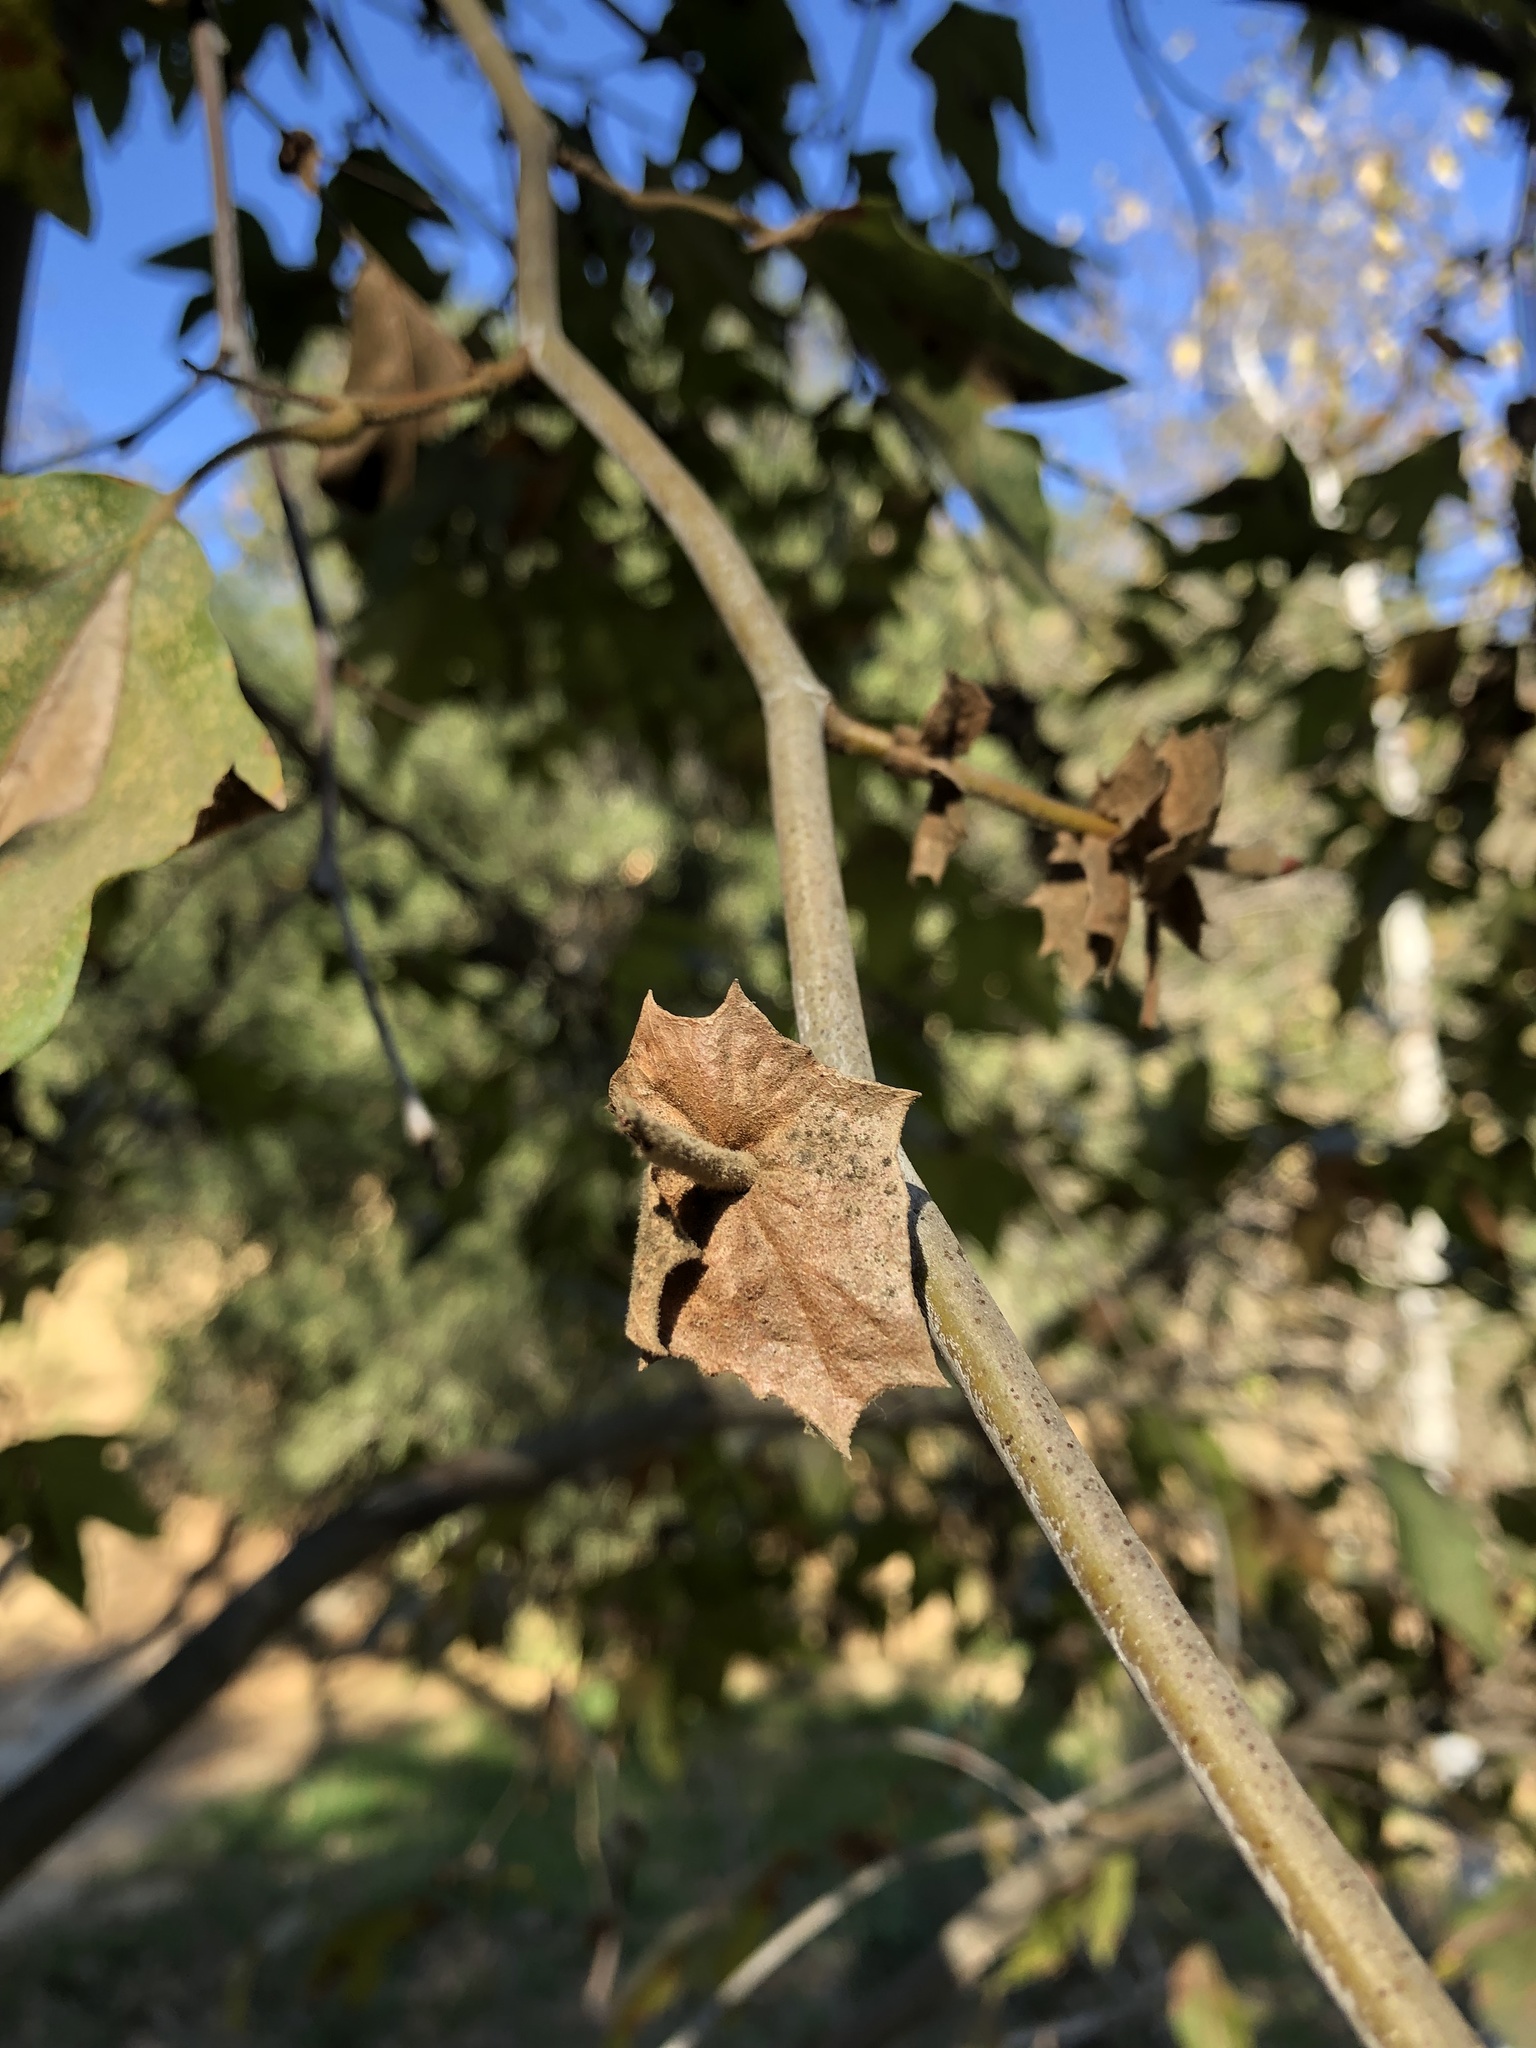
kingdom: Plantae
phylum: Tracheophyta
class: Magnoliopsida
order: Proteales
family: Platanaceae
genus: Platanus
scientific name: Platanus racemosa
